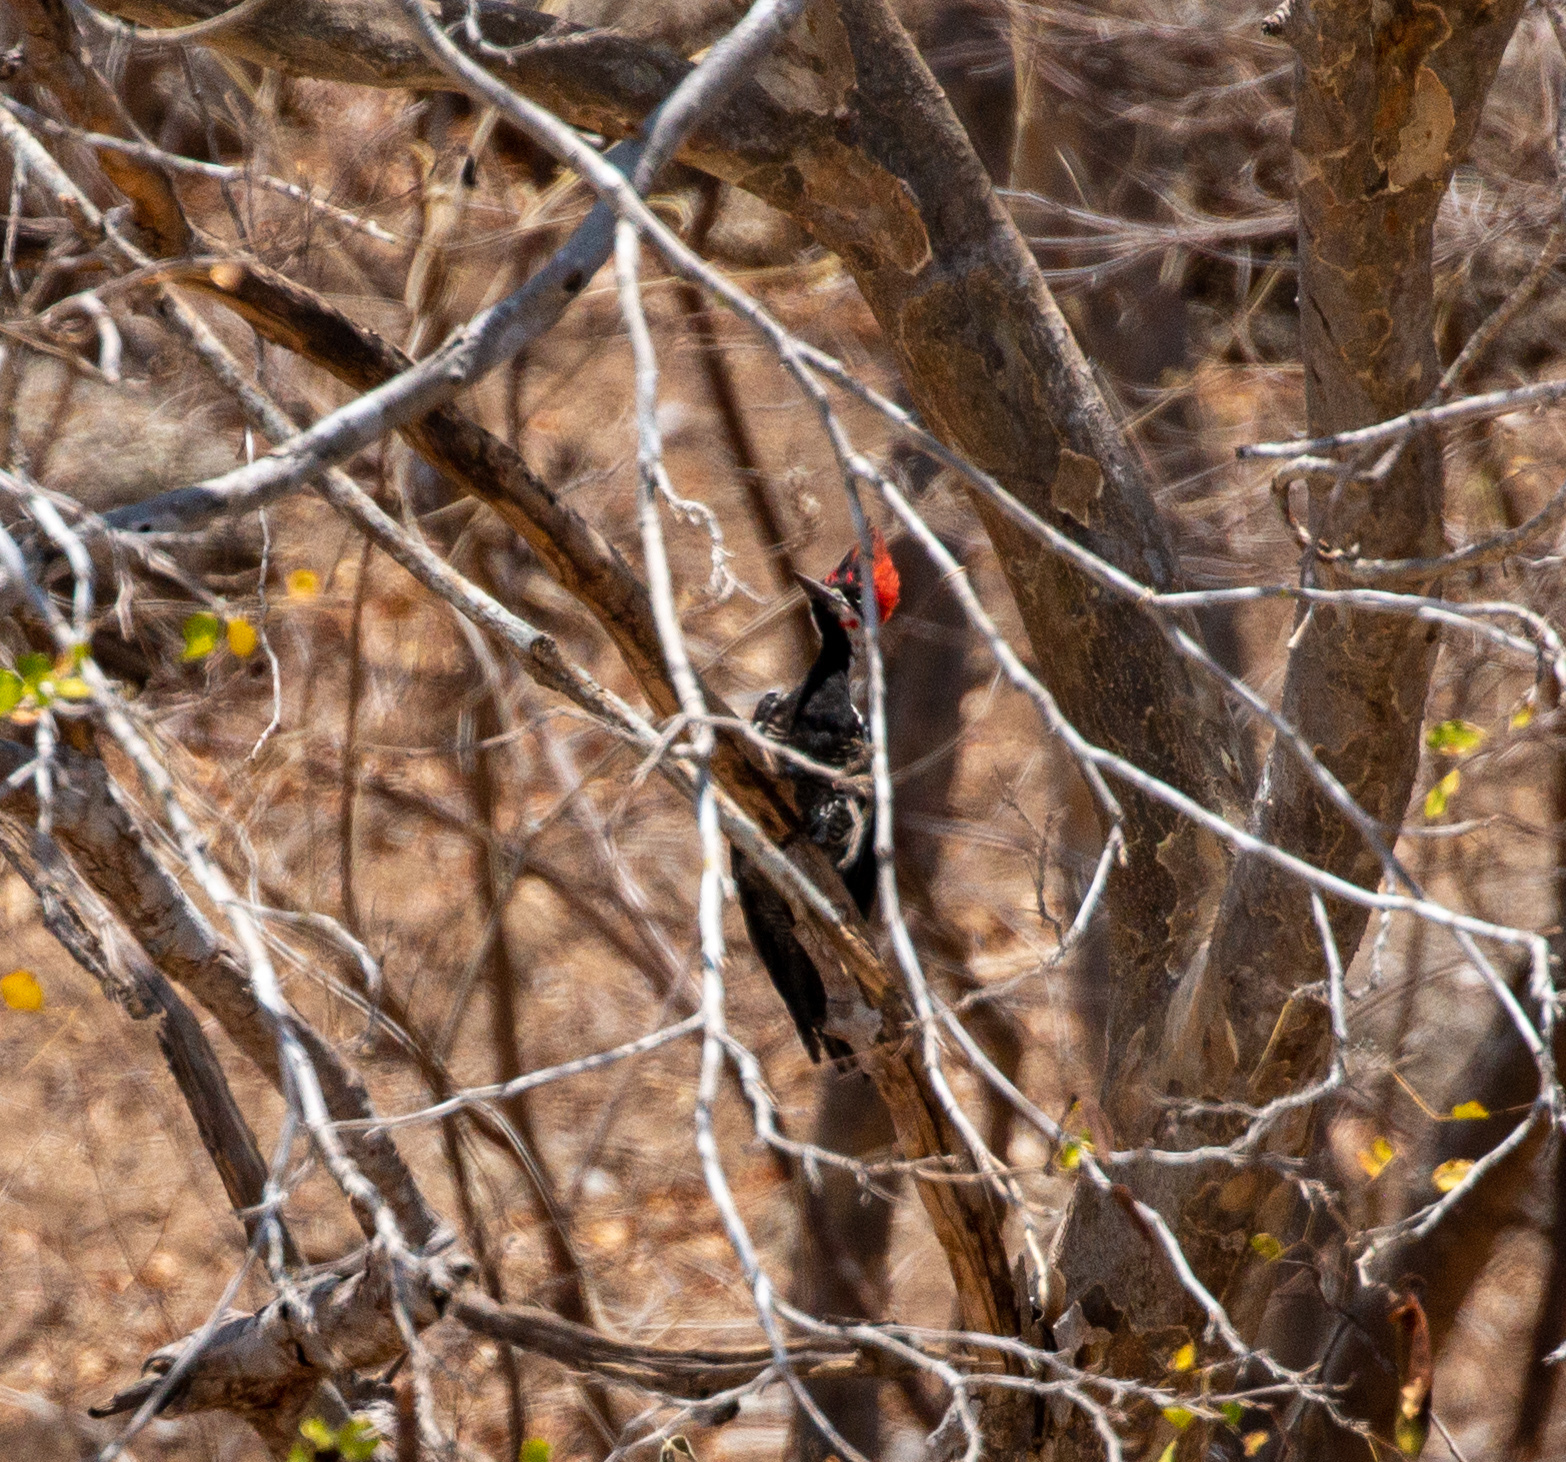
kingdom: Animalia
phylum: Chordata
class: Aves
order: Piciformes
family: Picidae
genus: Campephilus
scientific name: Campephilus melanoleucos
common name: Crimson-crested woodpecker
